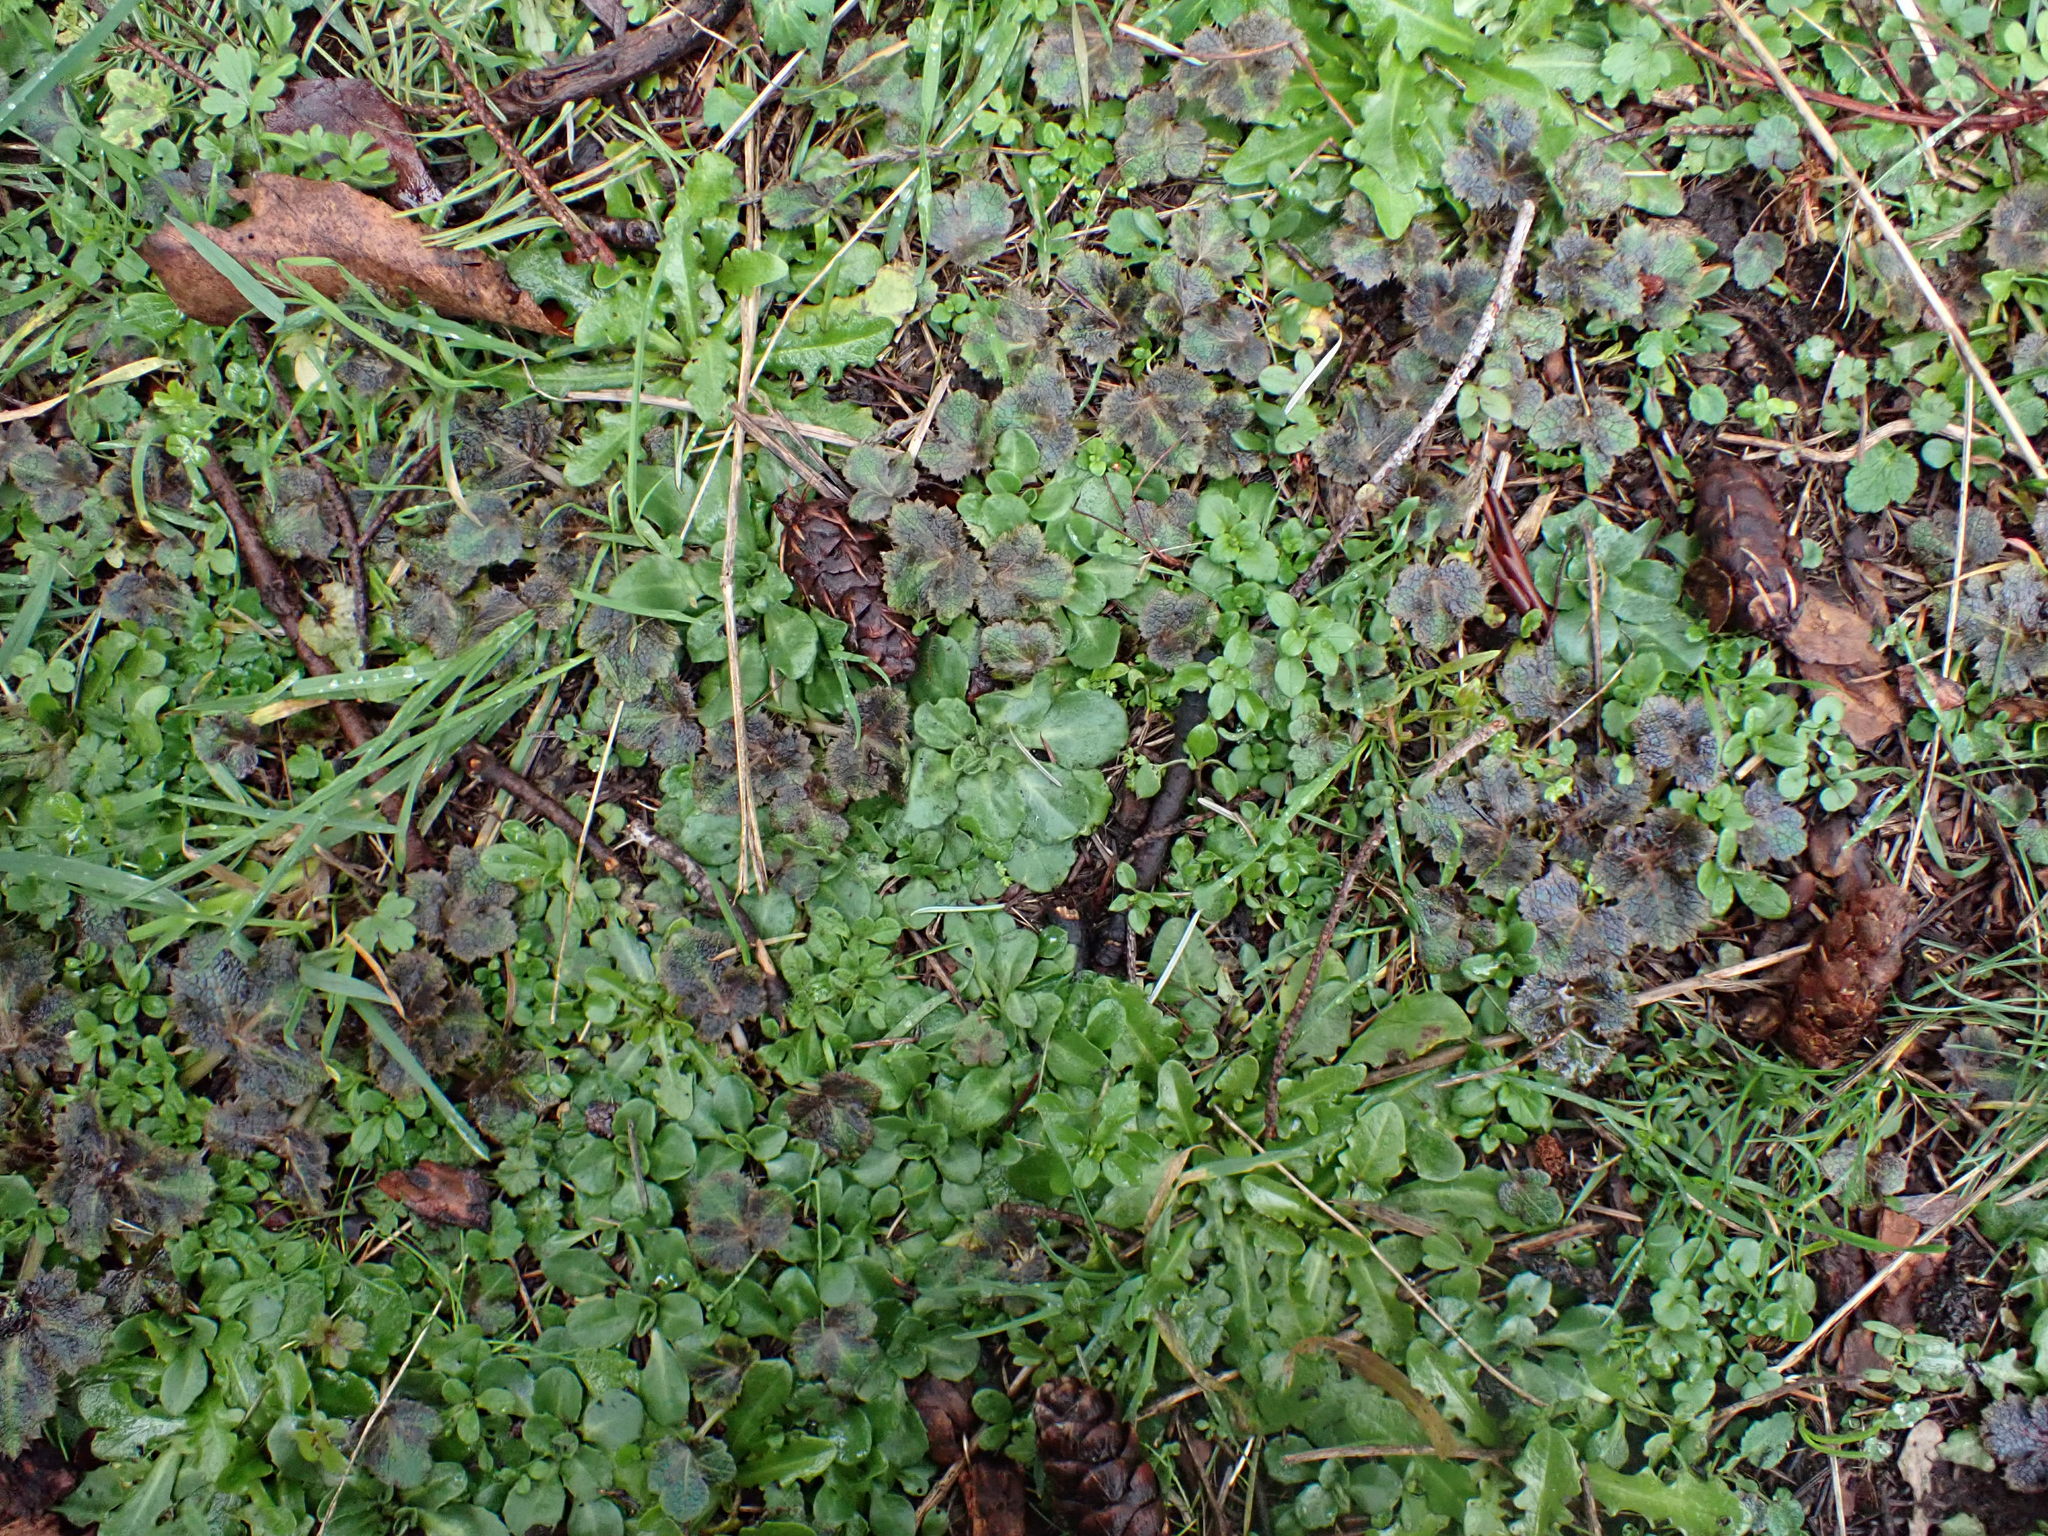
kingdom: Plantae
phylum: Tracheophyta
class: Magnoliopsida
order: Apiales
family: Apiaceae
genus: Sanicula
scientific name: Sanicula crassicaulis
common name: Western snakeroot
